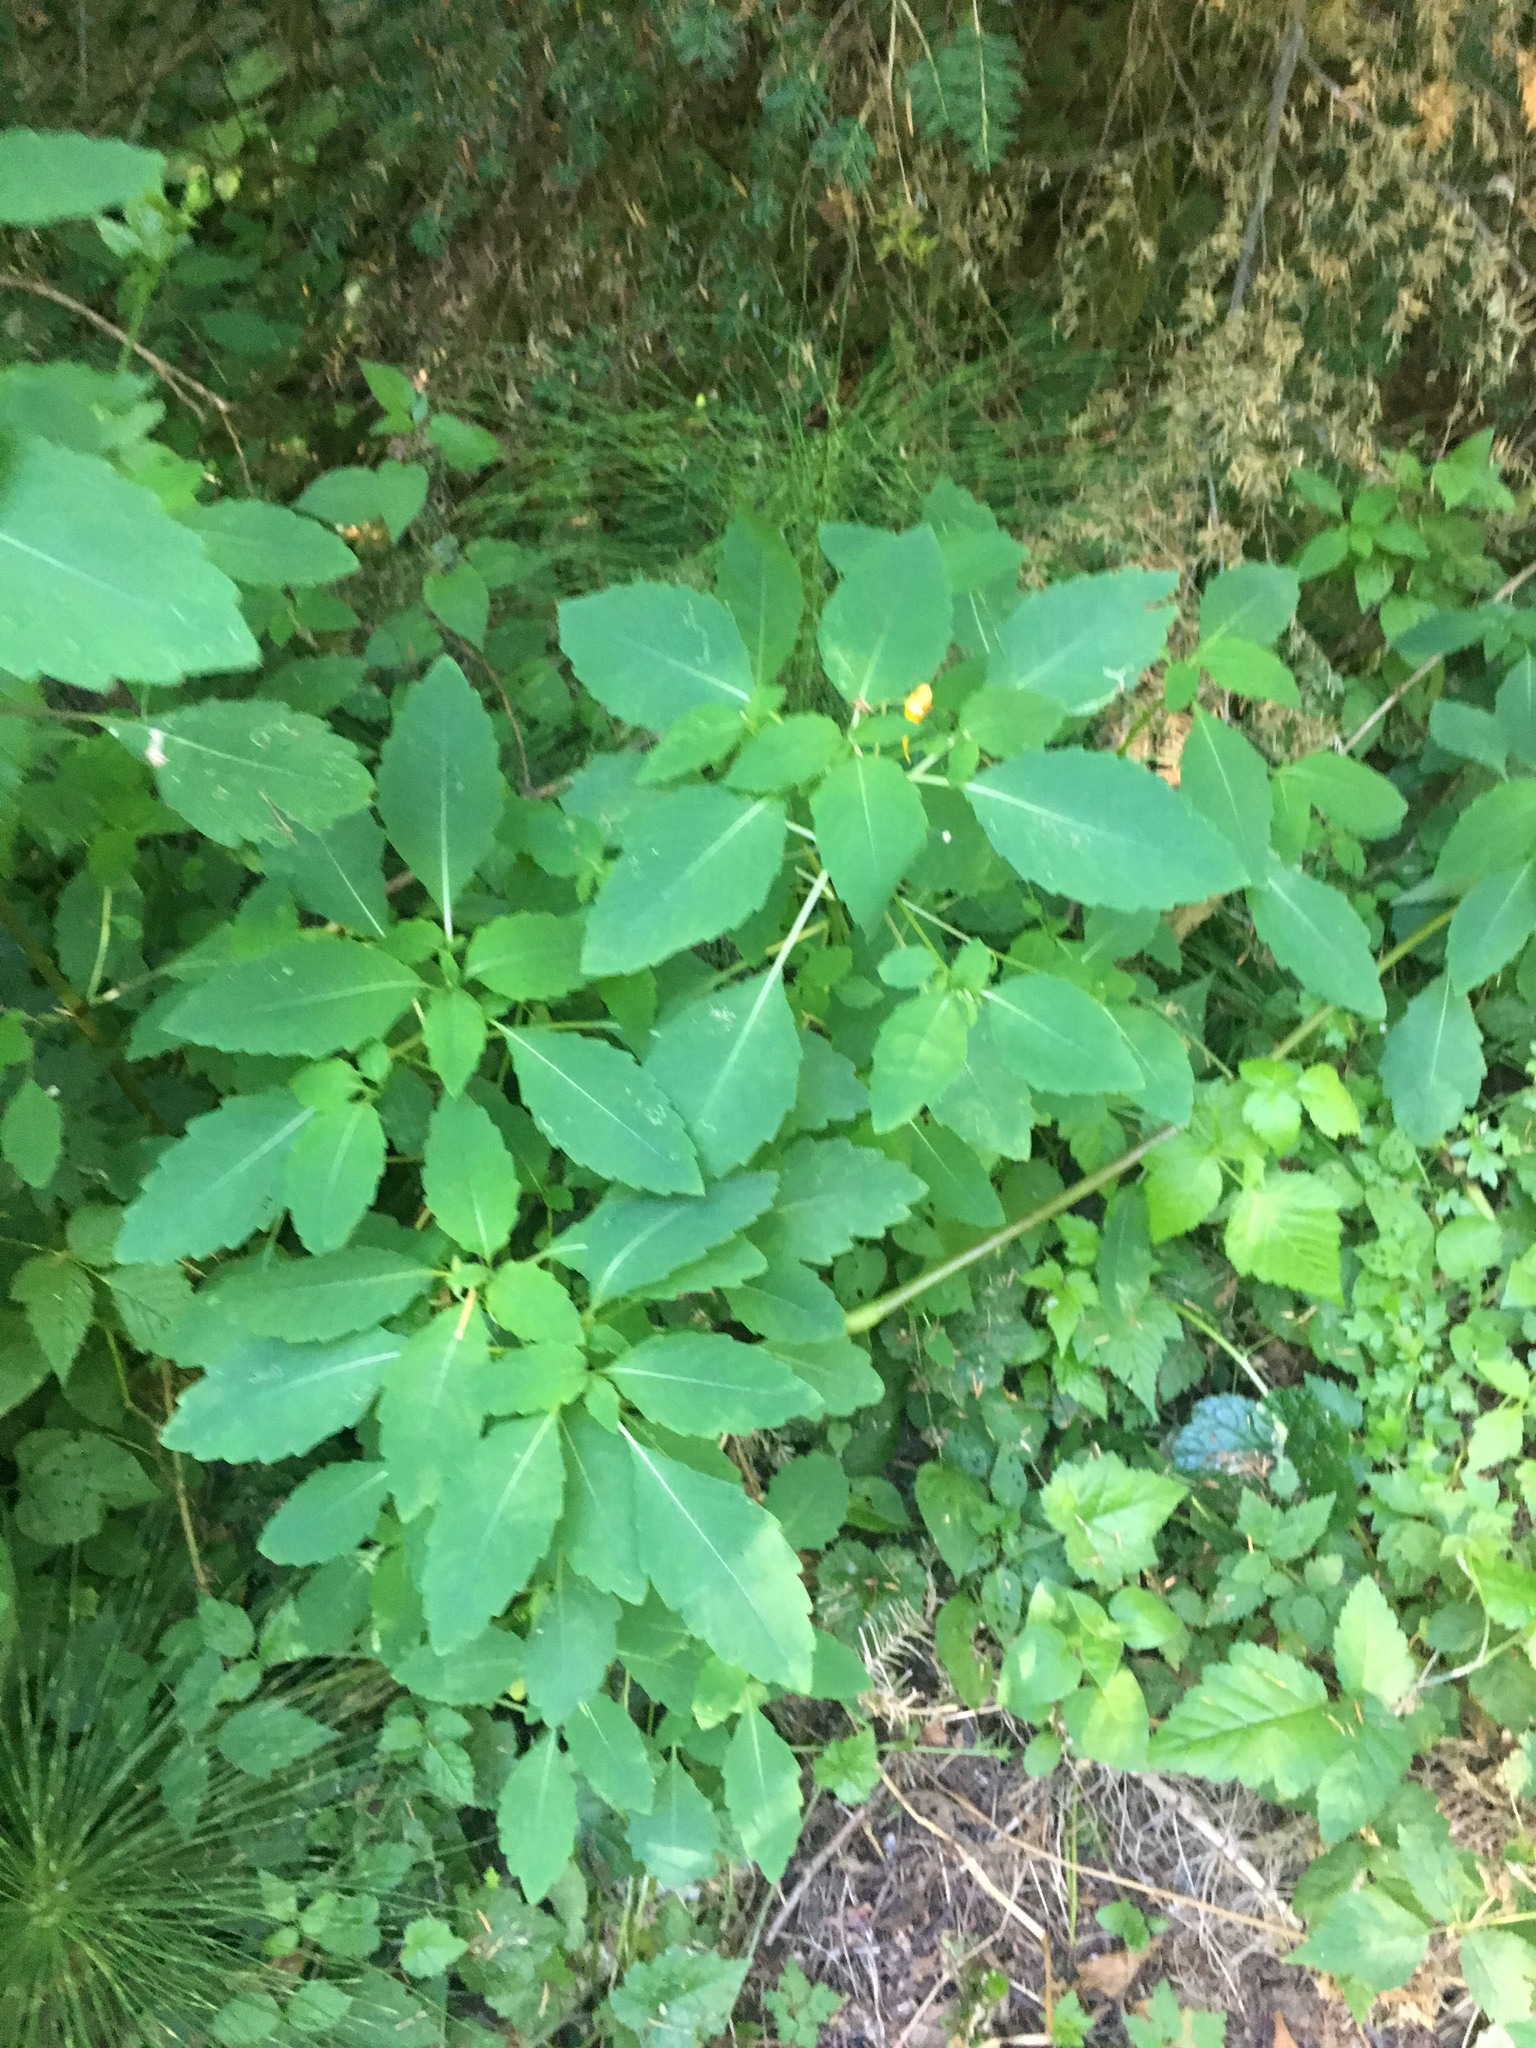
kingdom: Plantae
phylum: Tracheophyta
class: Magnoliopsida
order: Ericales
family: Balsaminaceae
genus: Impatiens
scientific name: Impatiens capensis
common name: Orange balsam
